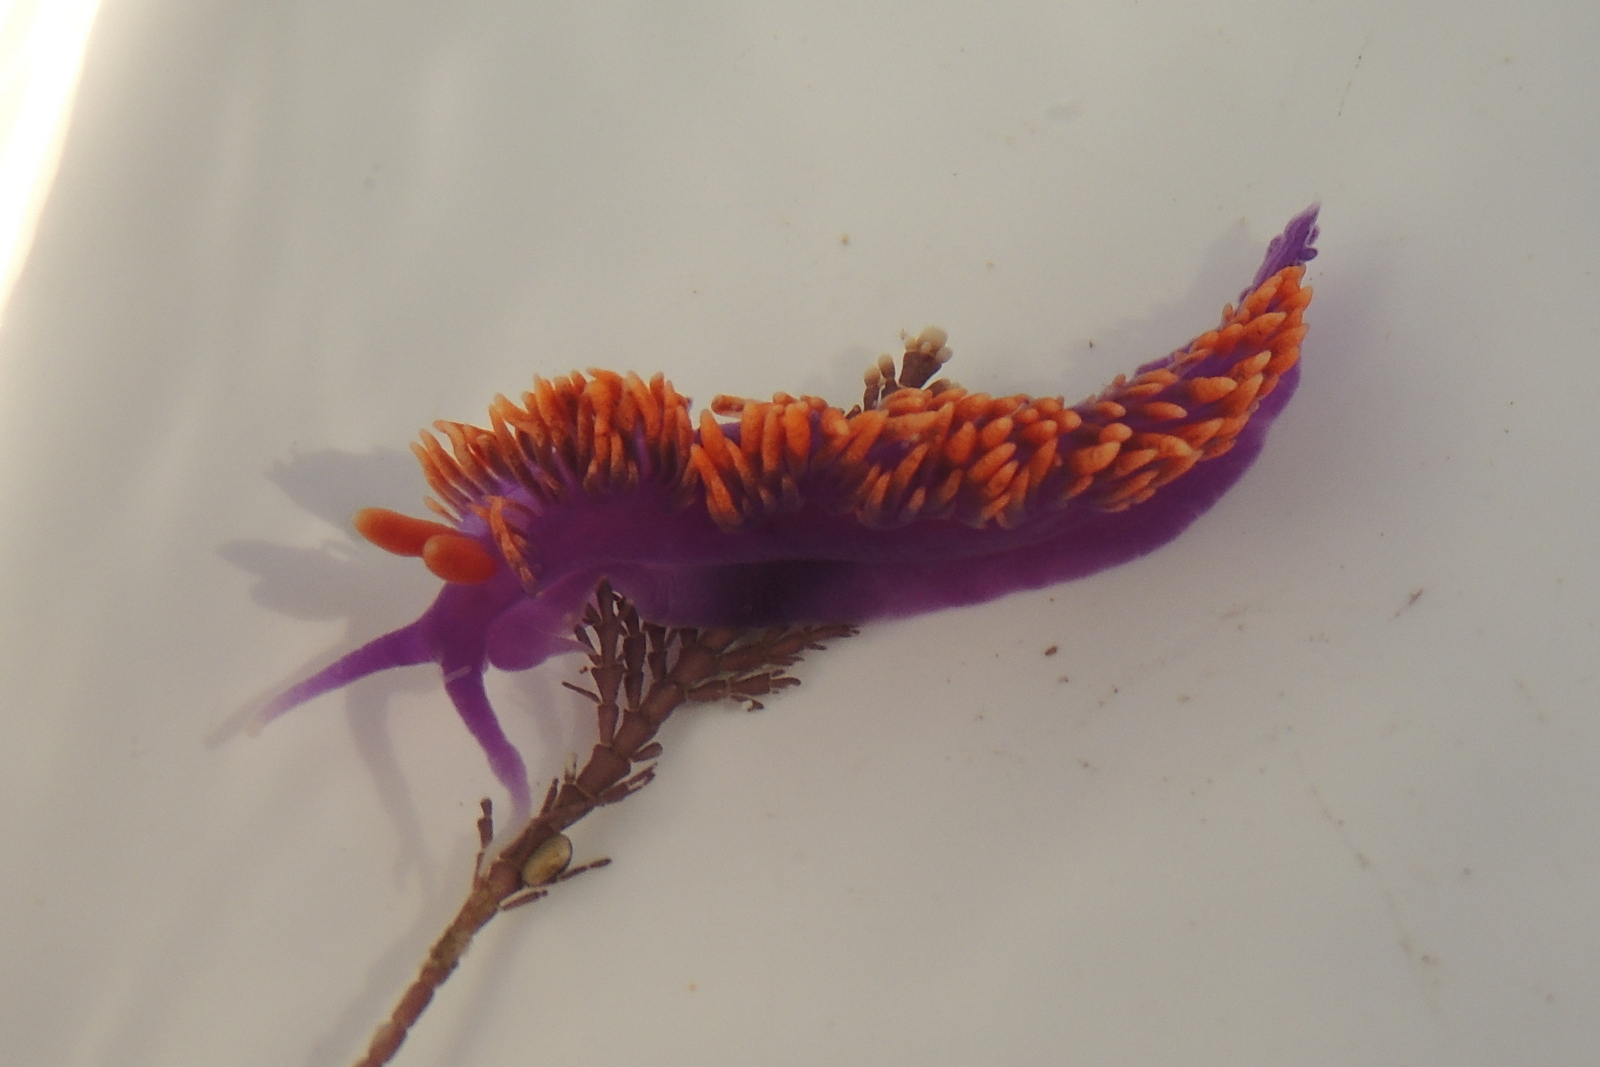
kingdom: Animalia
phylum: Mollusca
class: Gastropoda
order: Nudibranchia
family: Flabellinopsidae
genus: Flabellinopsis
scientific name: Flabellinopsis iodinea
